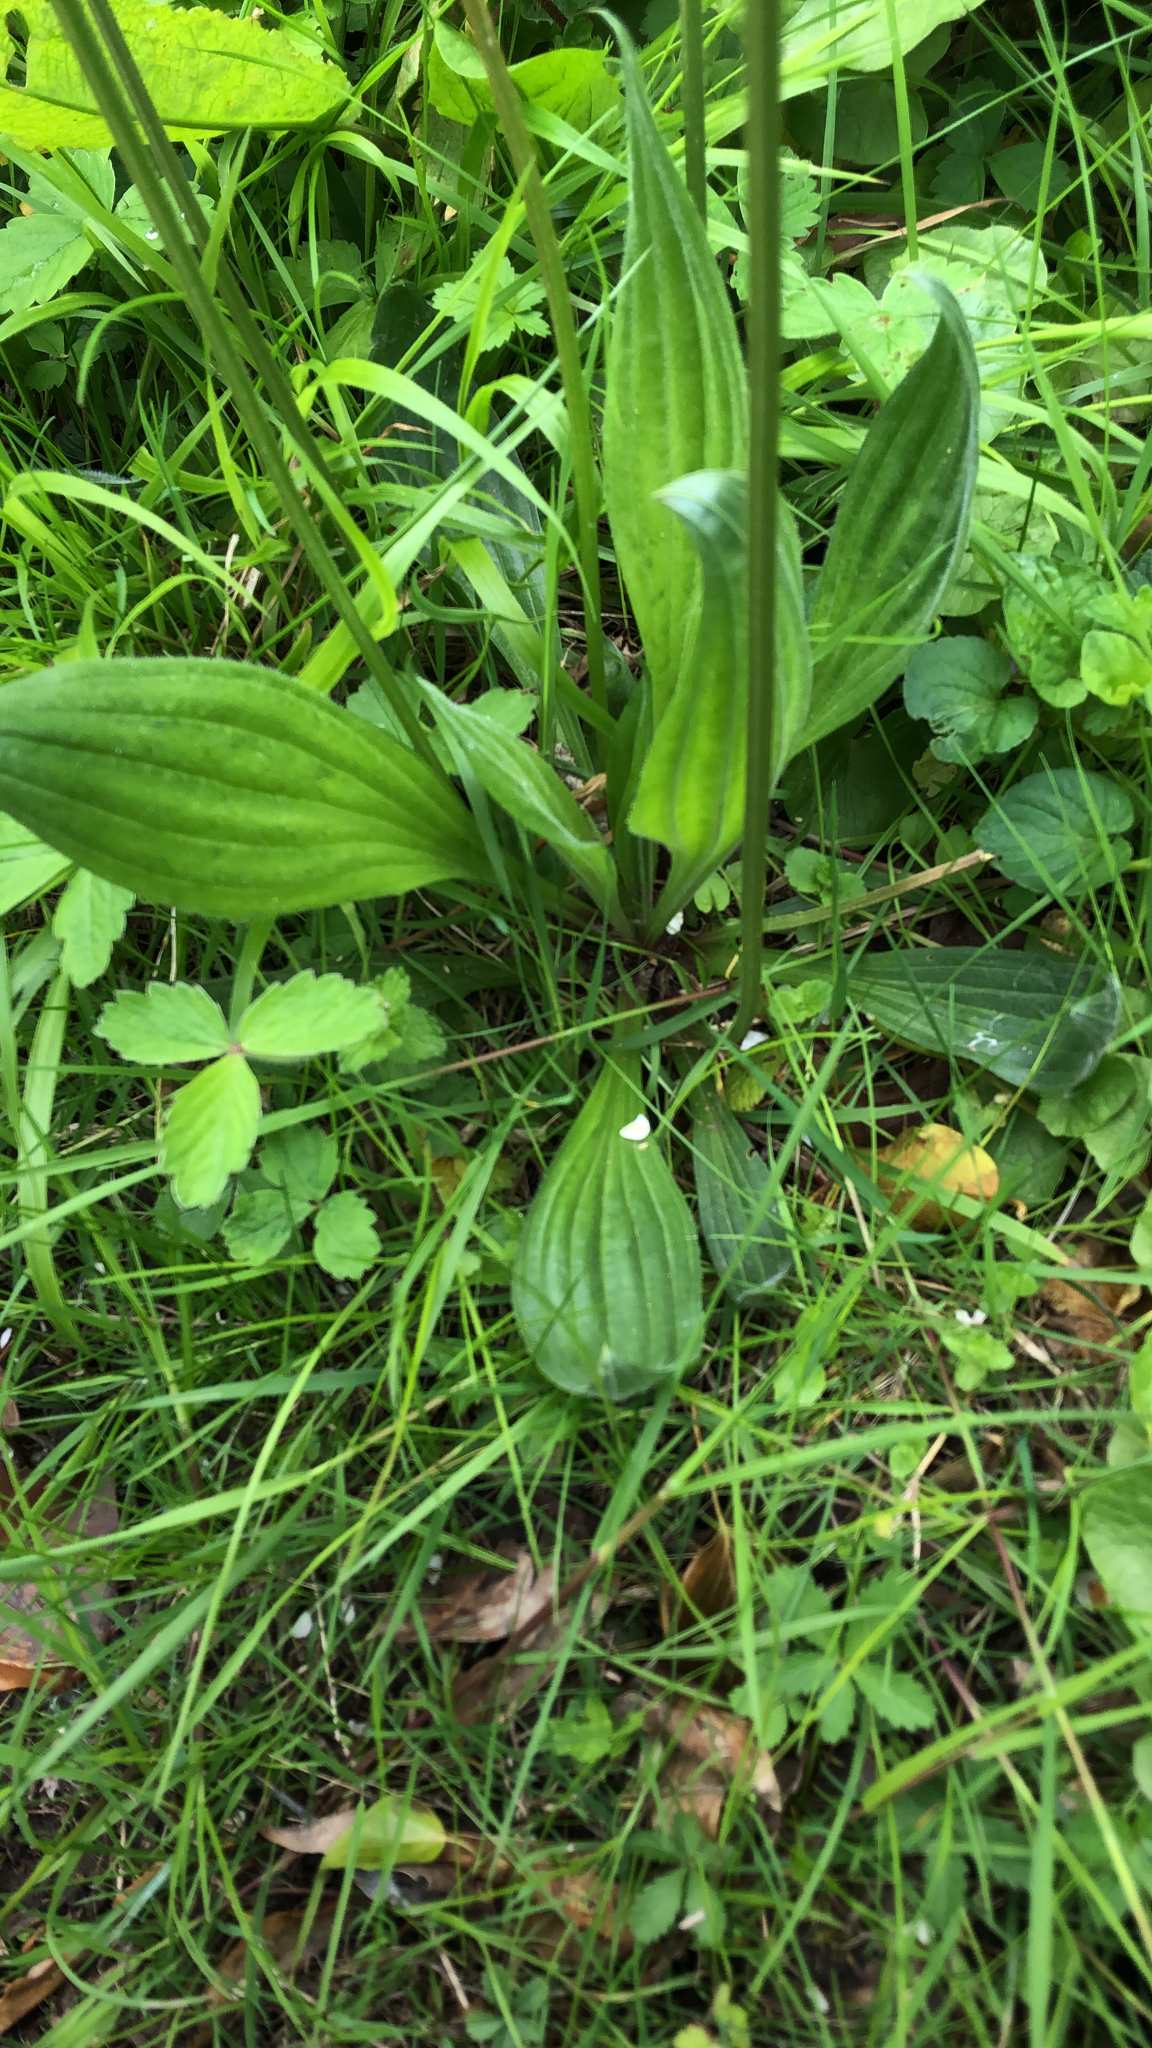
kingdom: Plantae
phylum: Tracheophyta
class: Magnoliopsida
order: Lamiales
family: Plantaginaceae
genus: Plantago
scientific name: Plantago lanceolata
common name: Ribwort plantain
